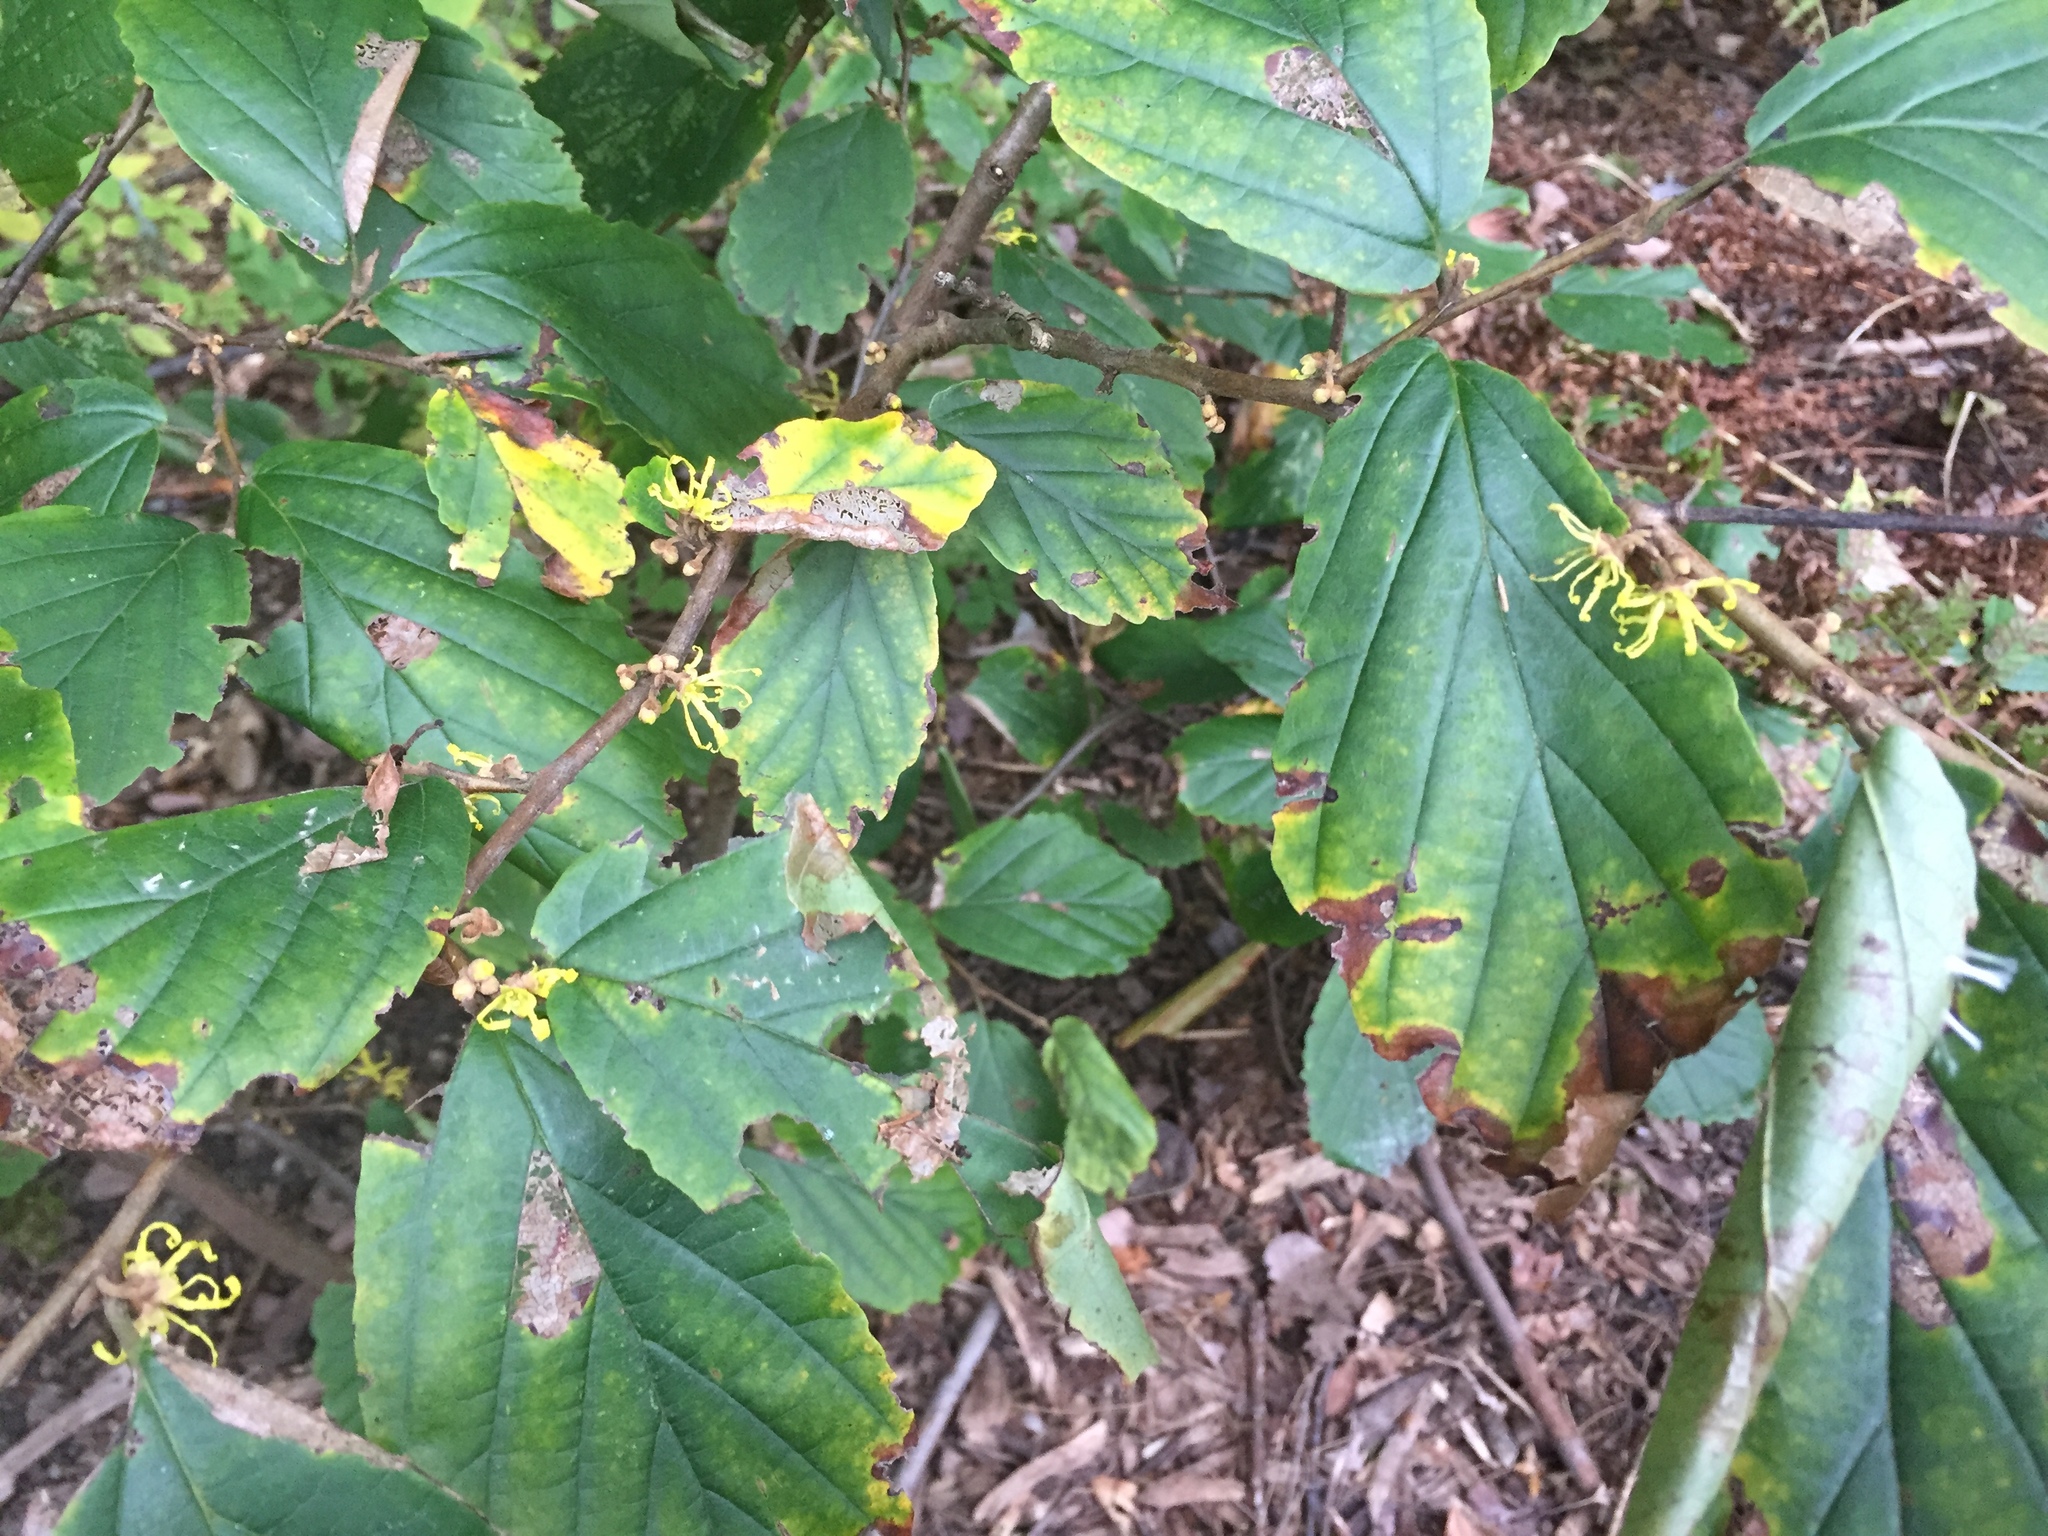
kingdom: Plantae
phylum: Tracheophyta
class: Magnoliopsida
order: Saxifragales
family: Hamamelidaceae
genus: Hamamelis
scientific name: Hamamelis virginiana
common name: Witch-hazel
